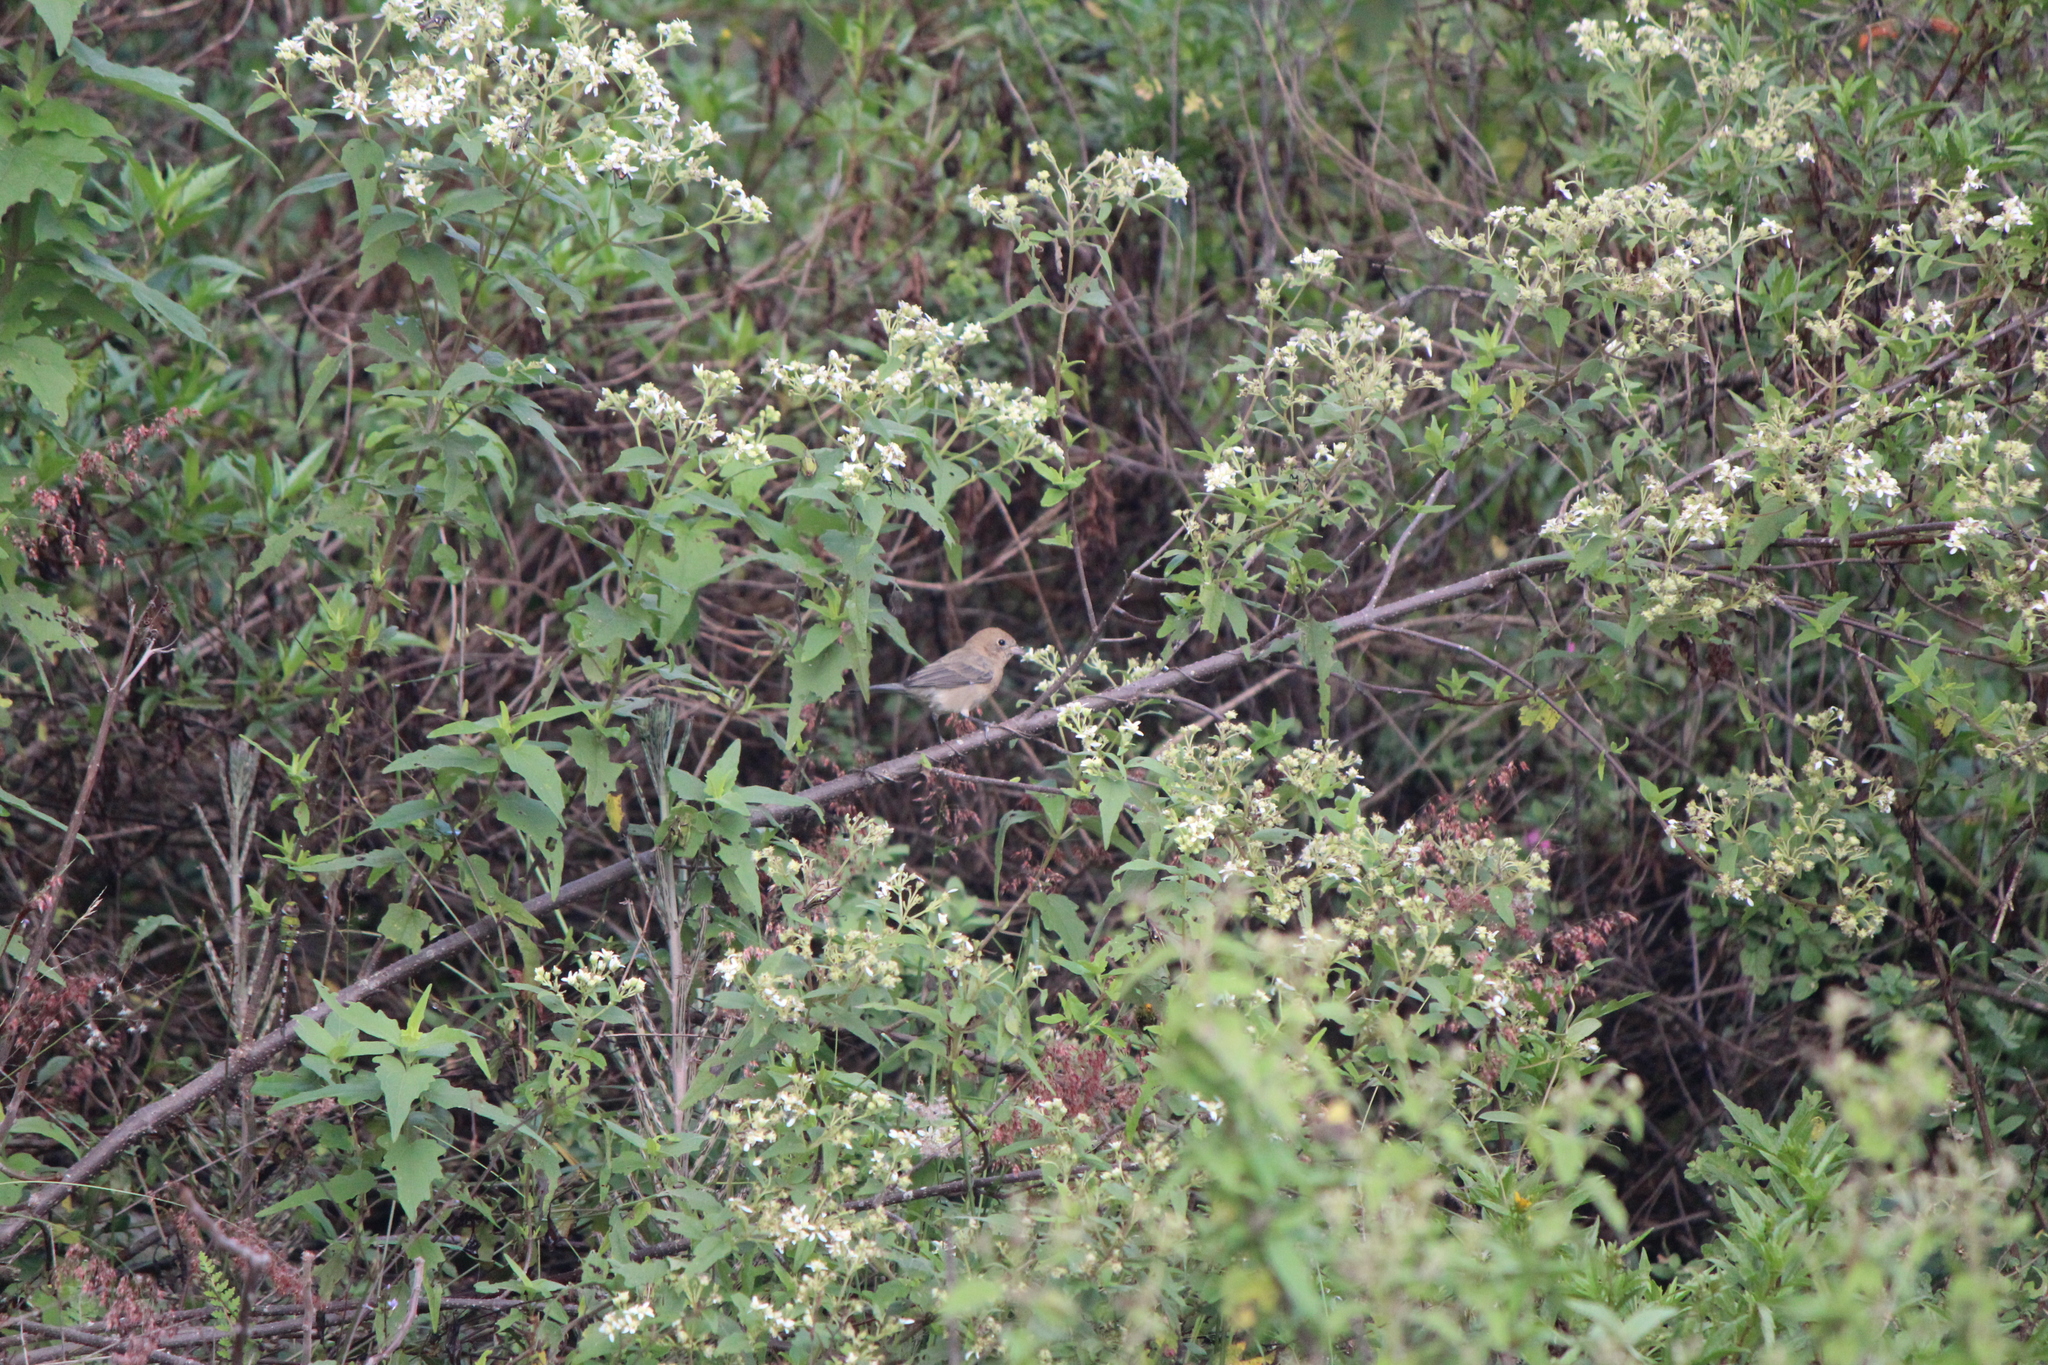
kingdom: Animalia
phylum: Chordata
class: Aves
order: Passeriformes
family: Cardinalidae
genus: Passerina
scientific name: Passerina versicolor
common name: Varied bunting
